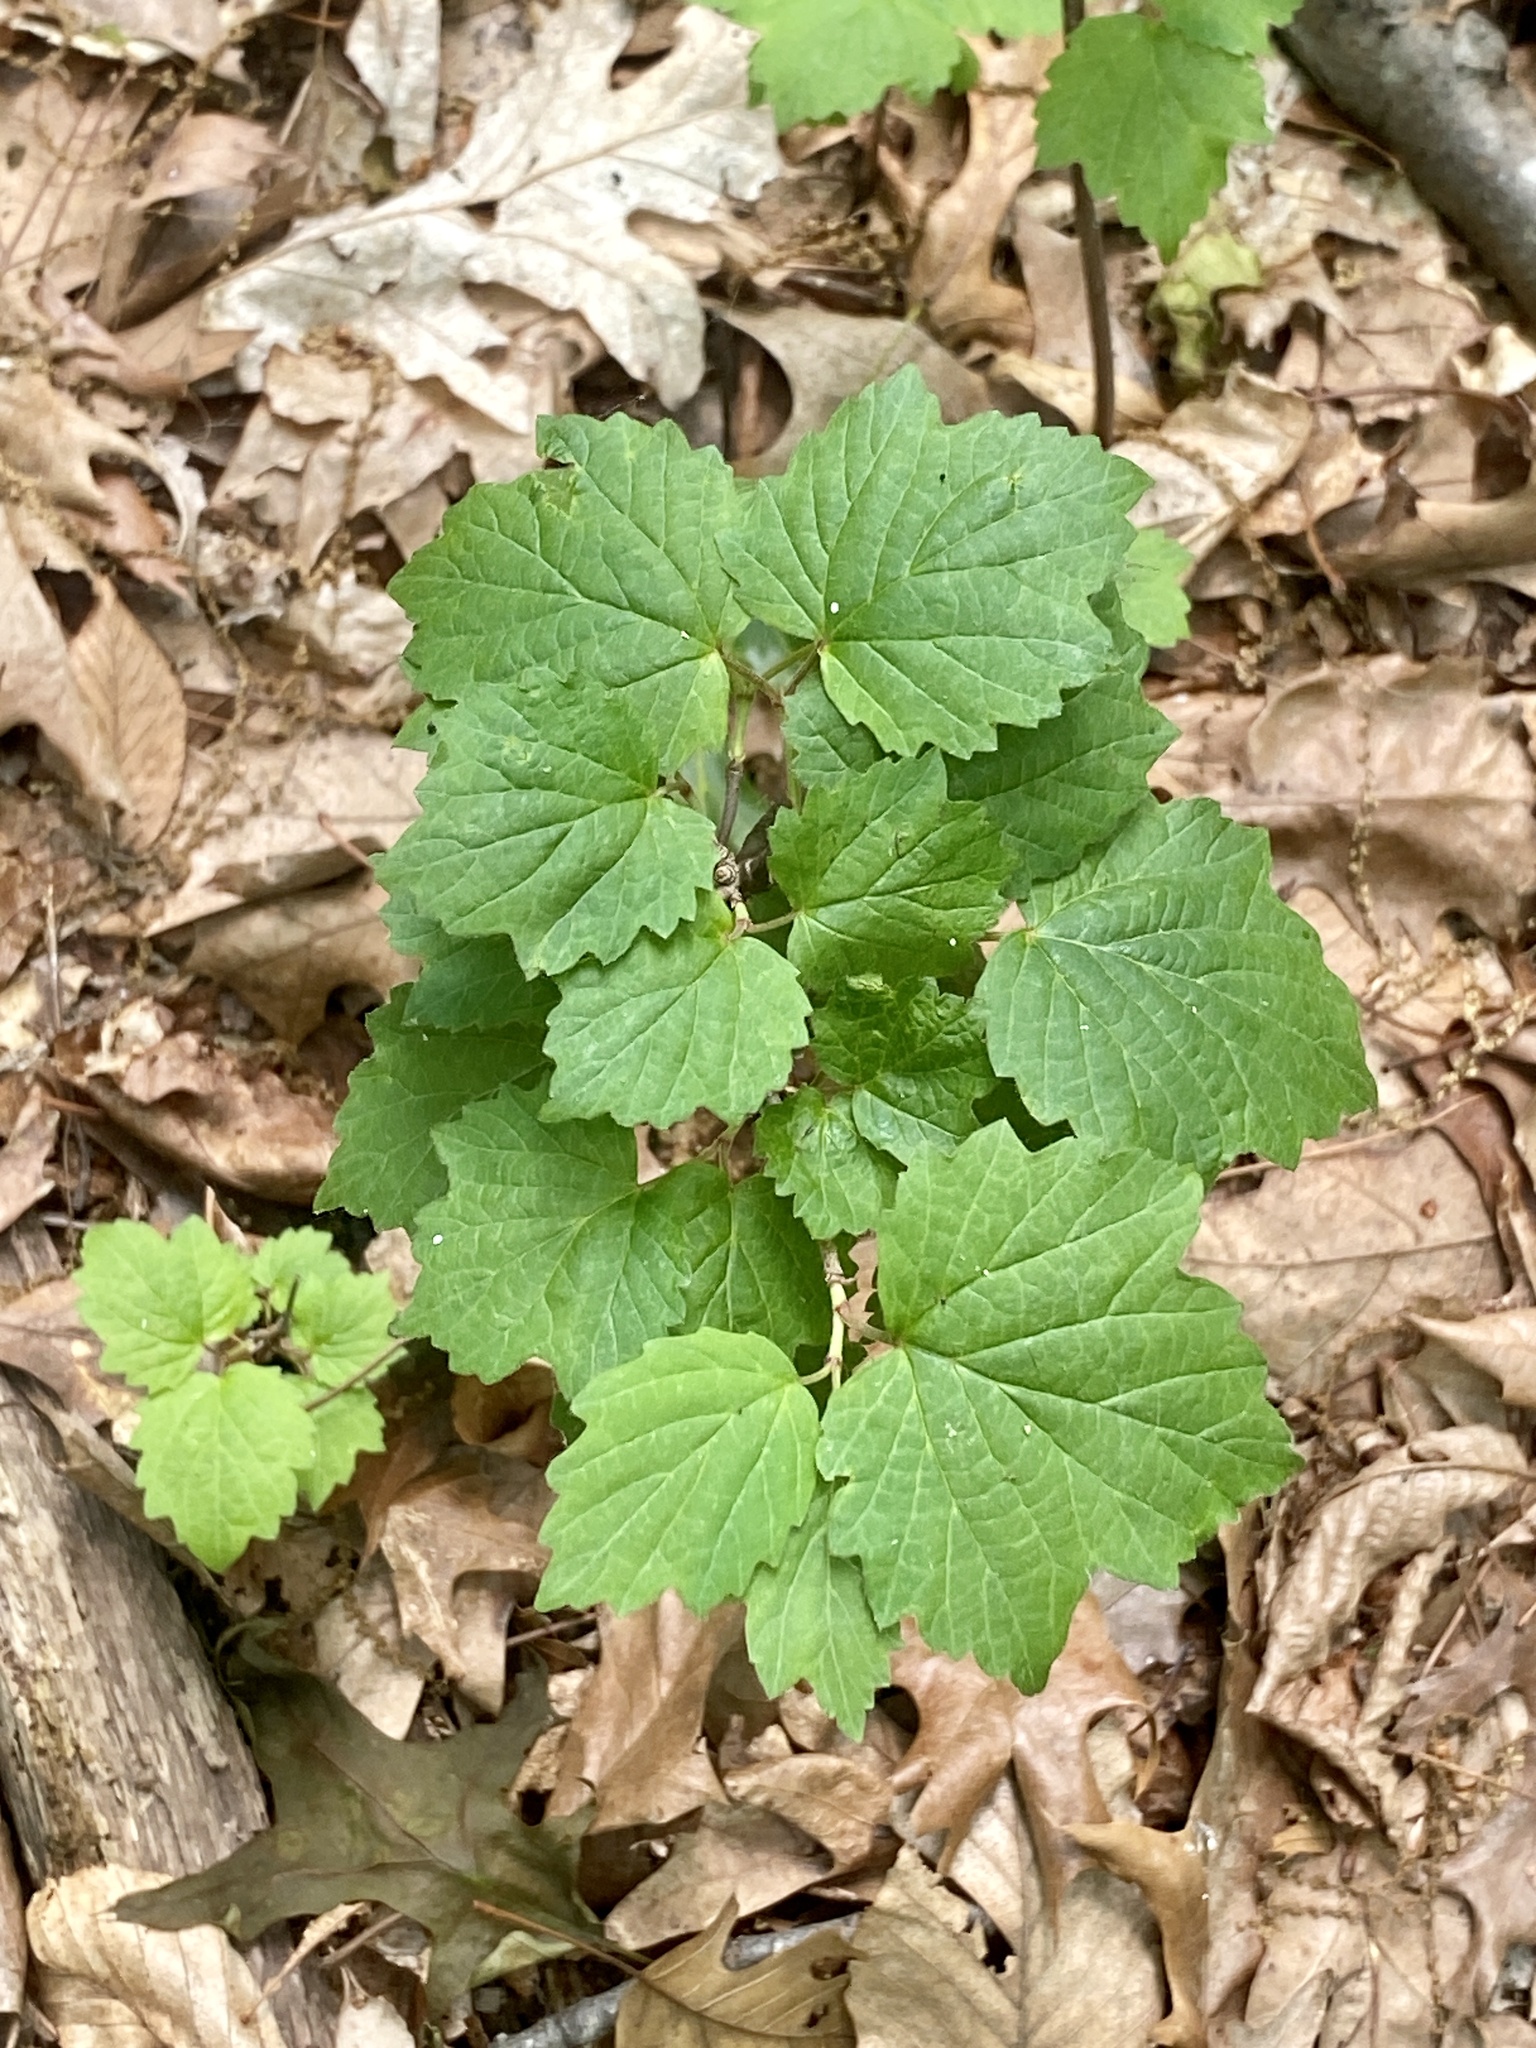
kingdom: Plantae
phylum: Tracheophyta
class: Magnoliopsida
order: Dipsacales
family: Viburnaceae
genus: Viburnum
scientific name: Viburnum acerifolium
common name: Dockmackie
